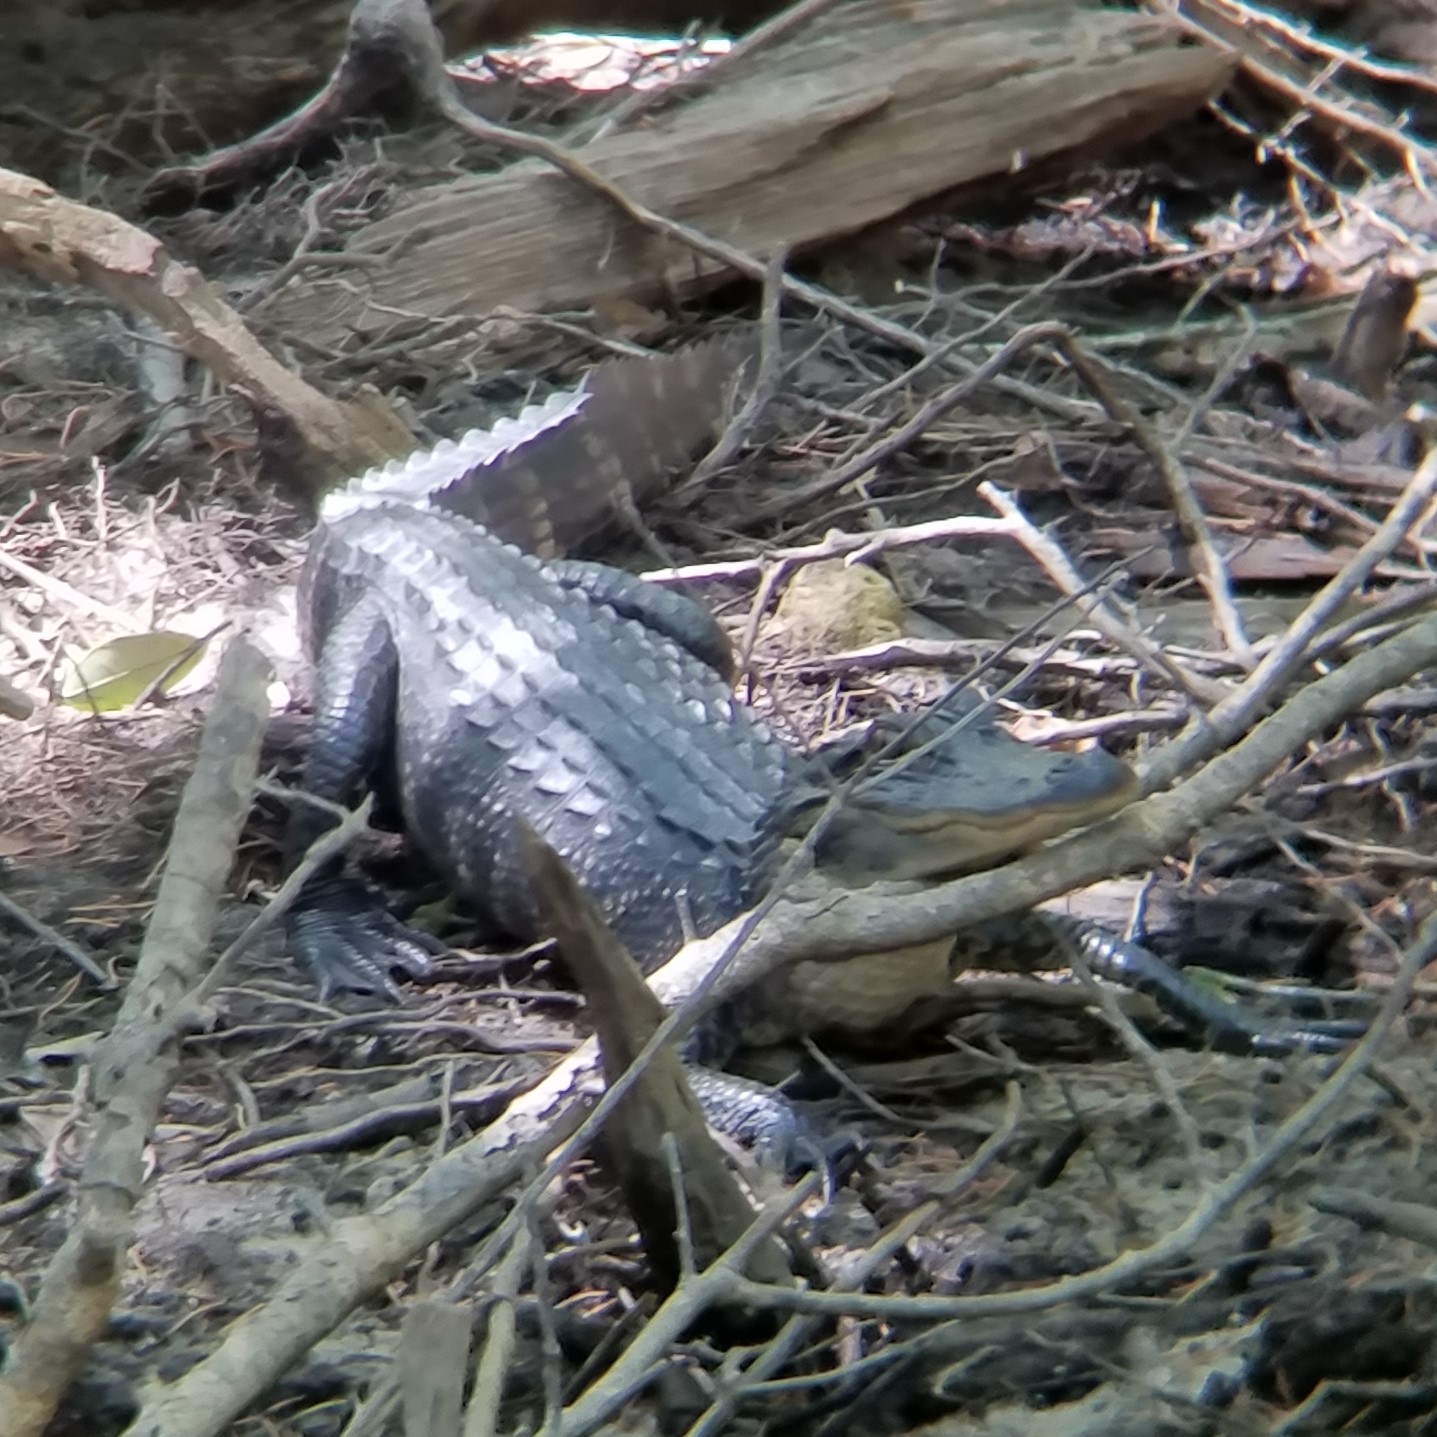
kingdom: Animalia
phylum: Chordata
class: Crocodylia
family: Alligatoridae
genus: Alligator
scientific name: Alligator mississippiensis
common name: American alligator
